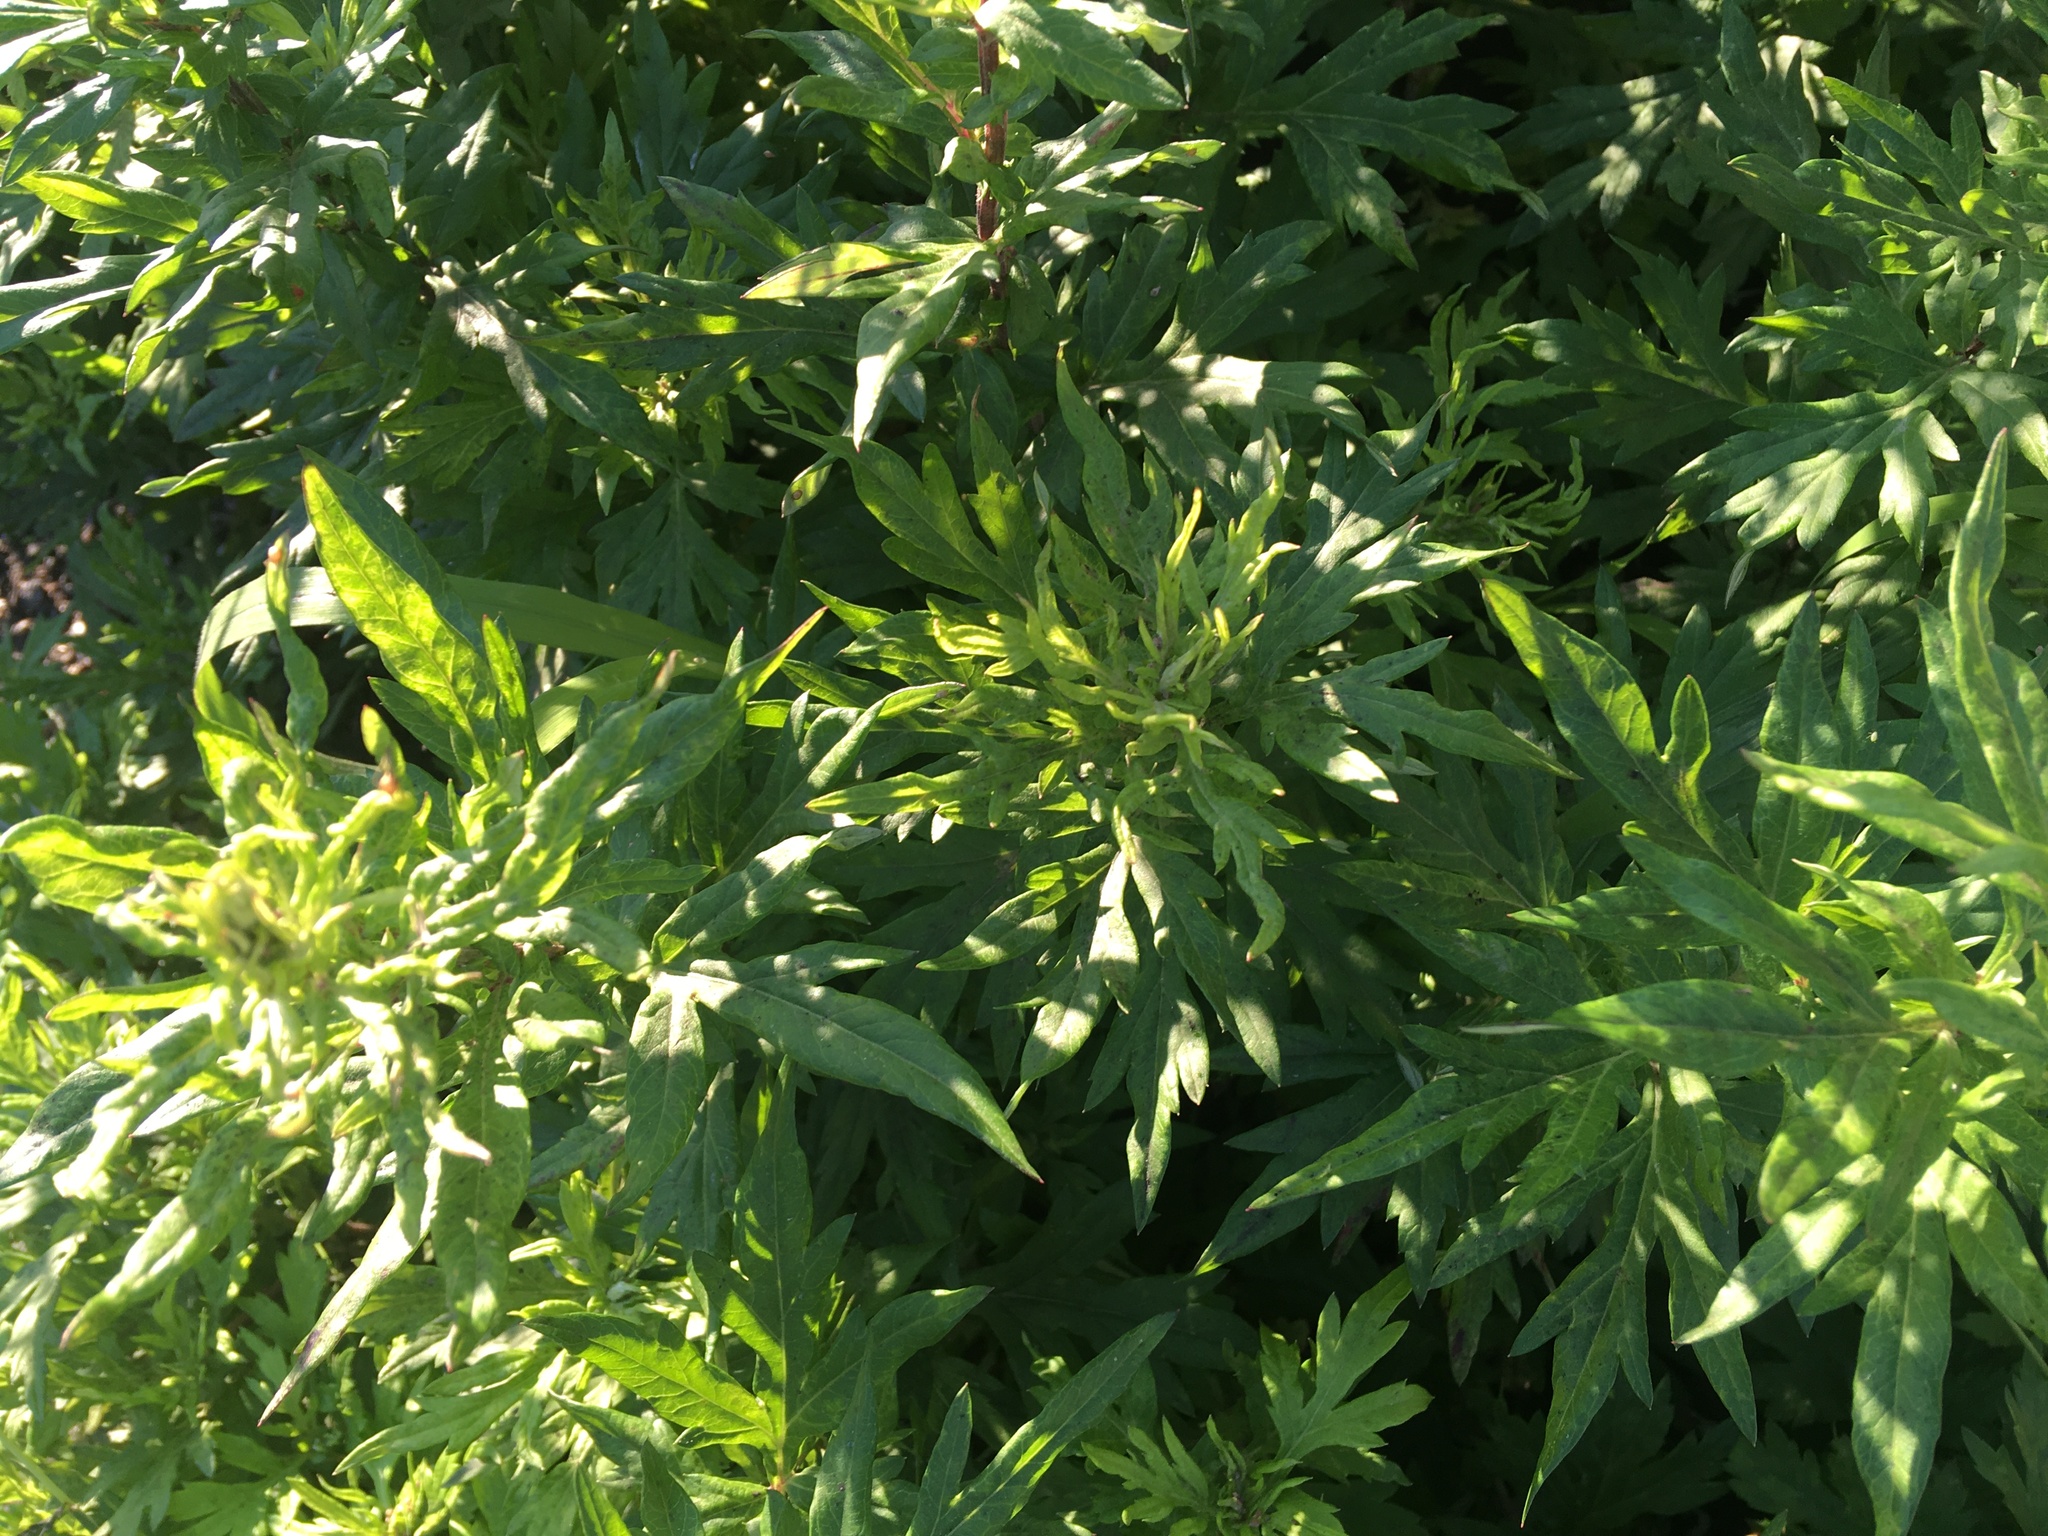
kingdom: Plantae
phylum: Tracheophyta
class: Magnoliopsida
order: Asterales
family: Asteraceae
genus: Artemisia
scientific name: Artemisia vulgaris
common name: Mugwort
